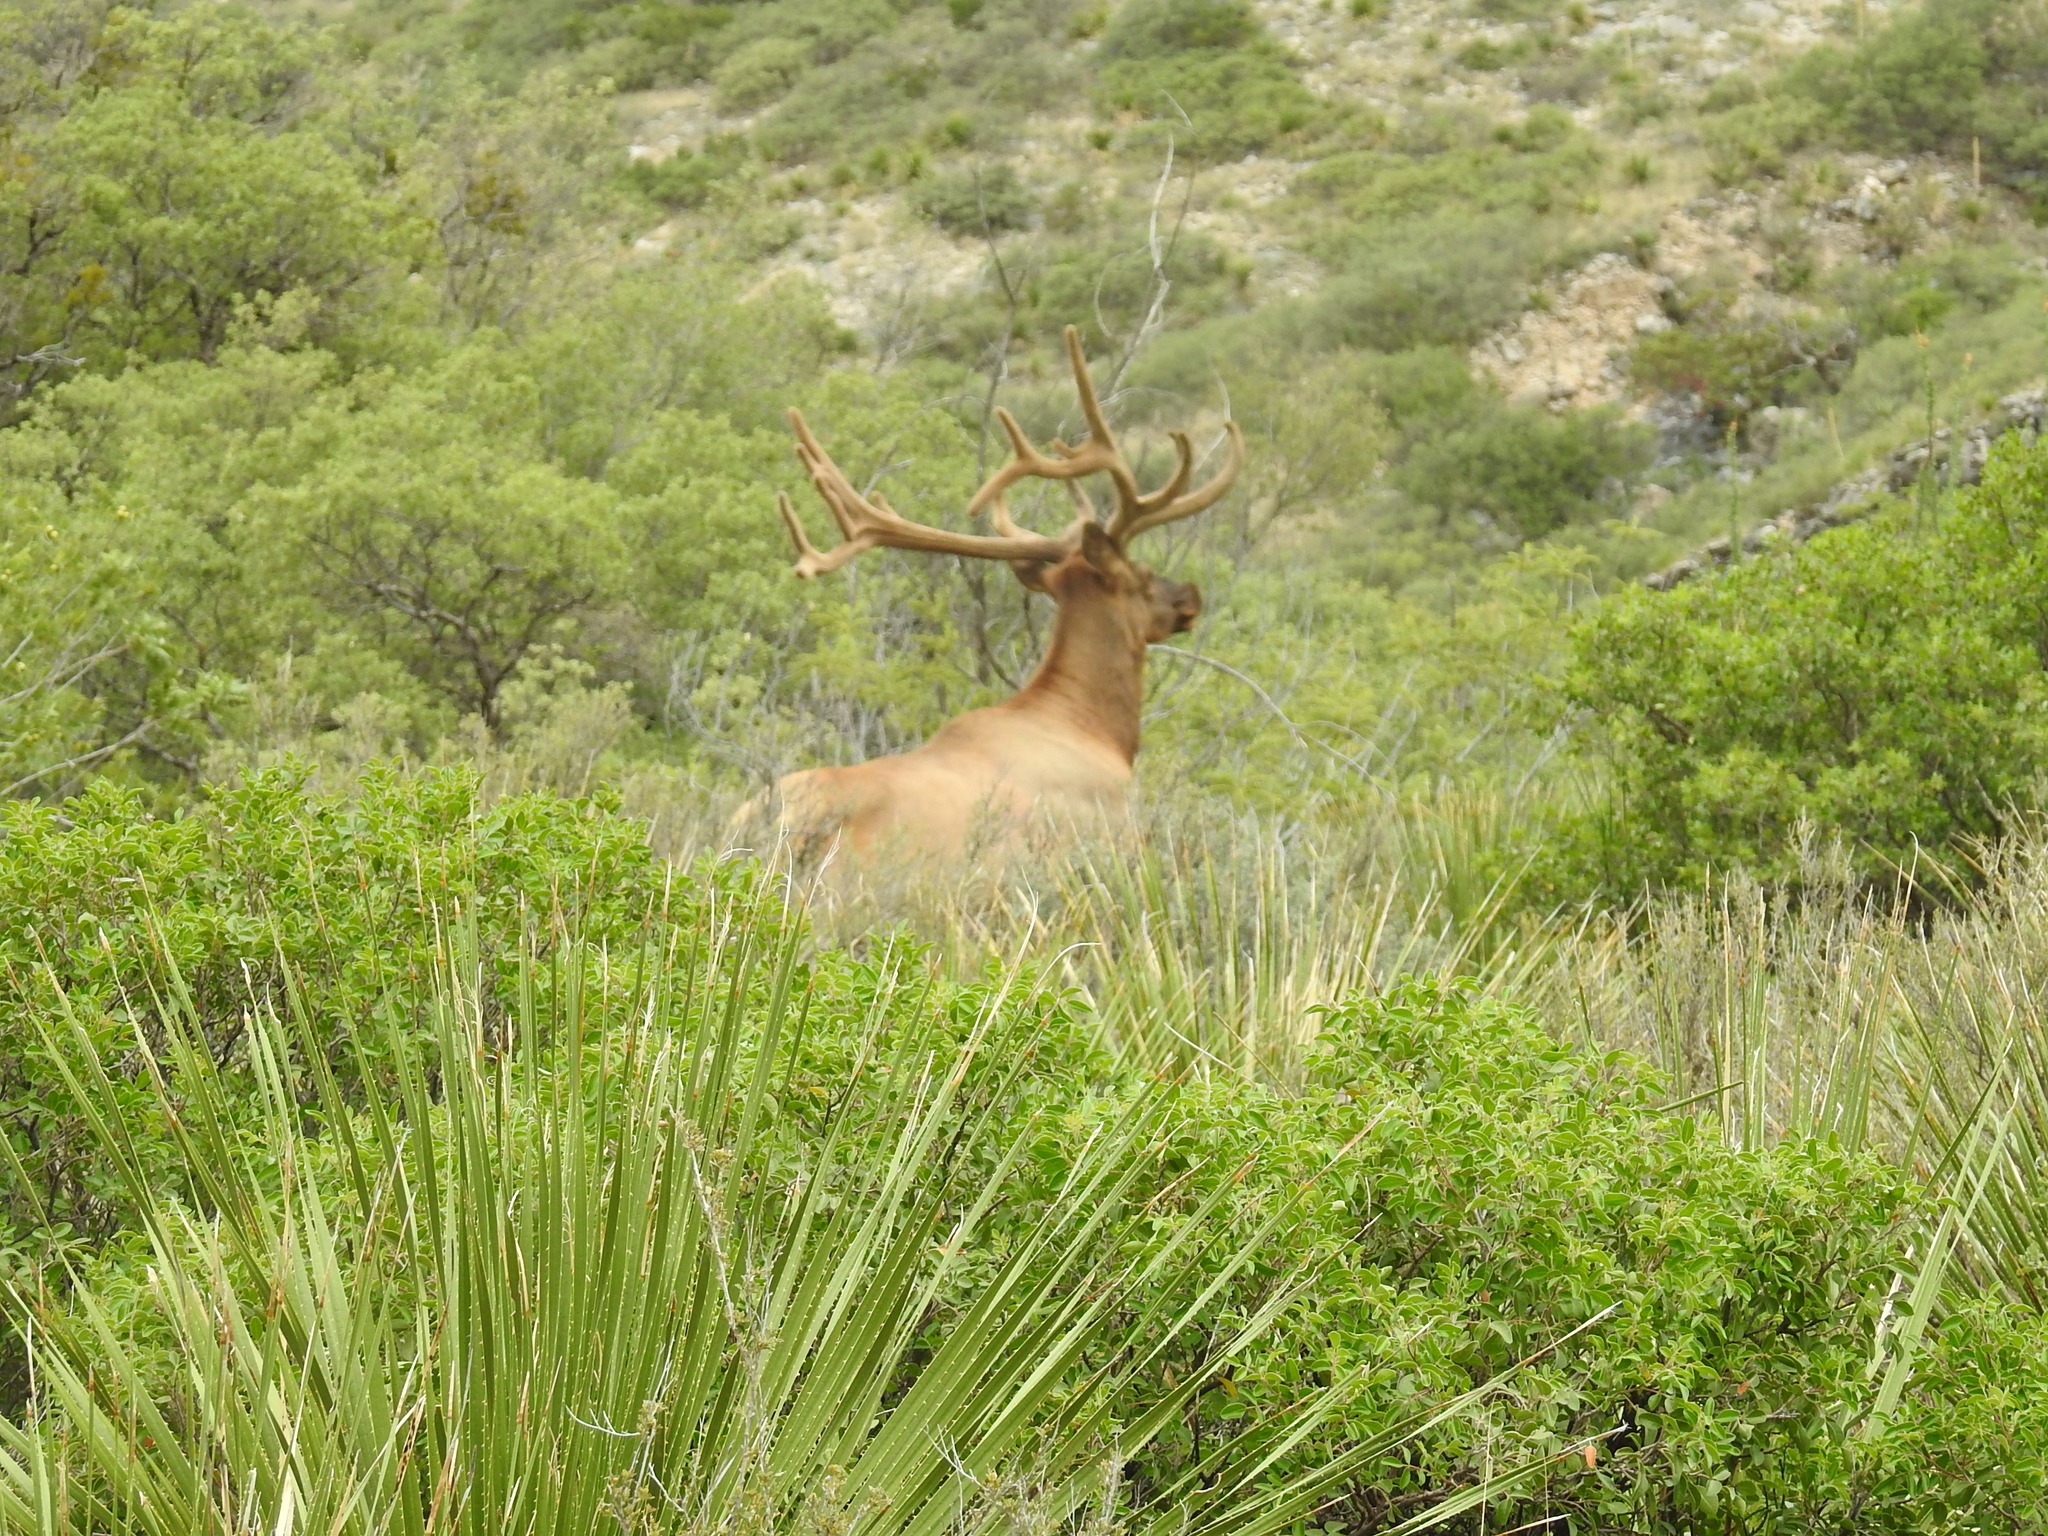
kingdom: Animalia
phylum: Chordata
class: Mammalia
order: Artiodactyla
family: Cervidae
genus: Cervus
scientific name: Cervus elaphus
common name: Red deer
